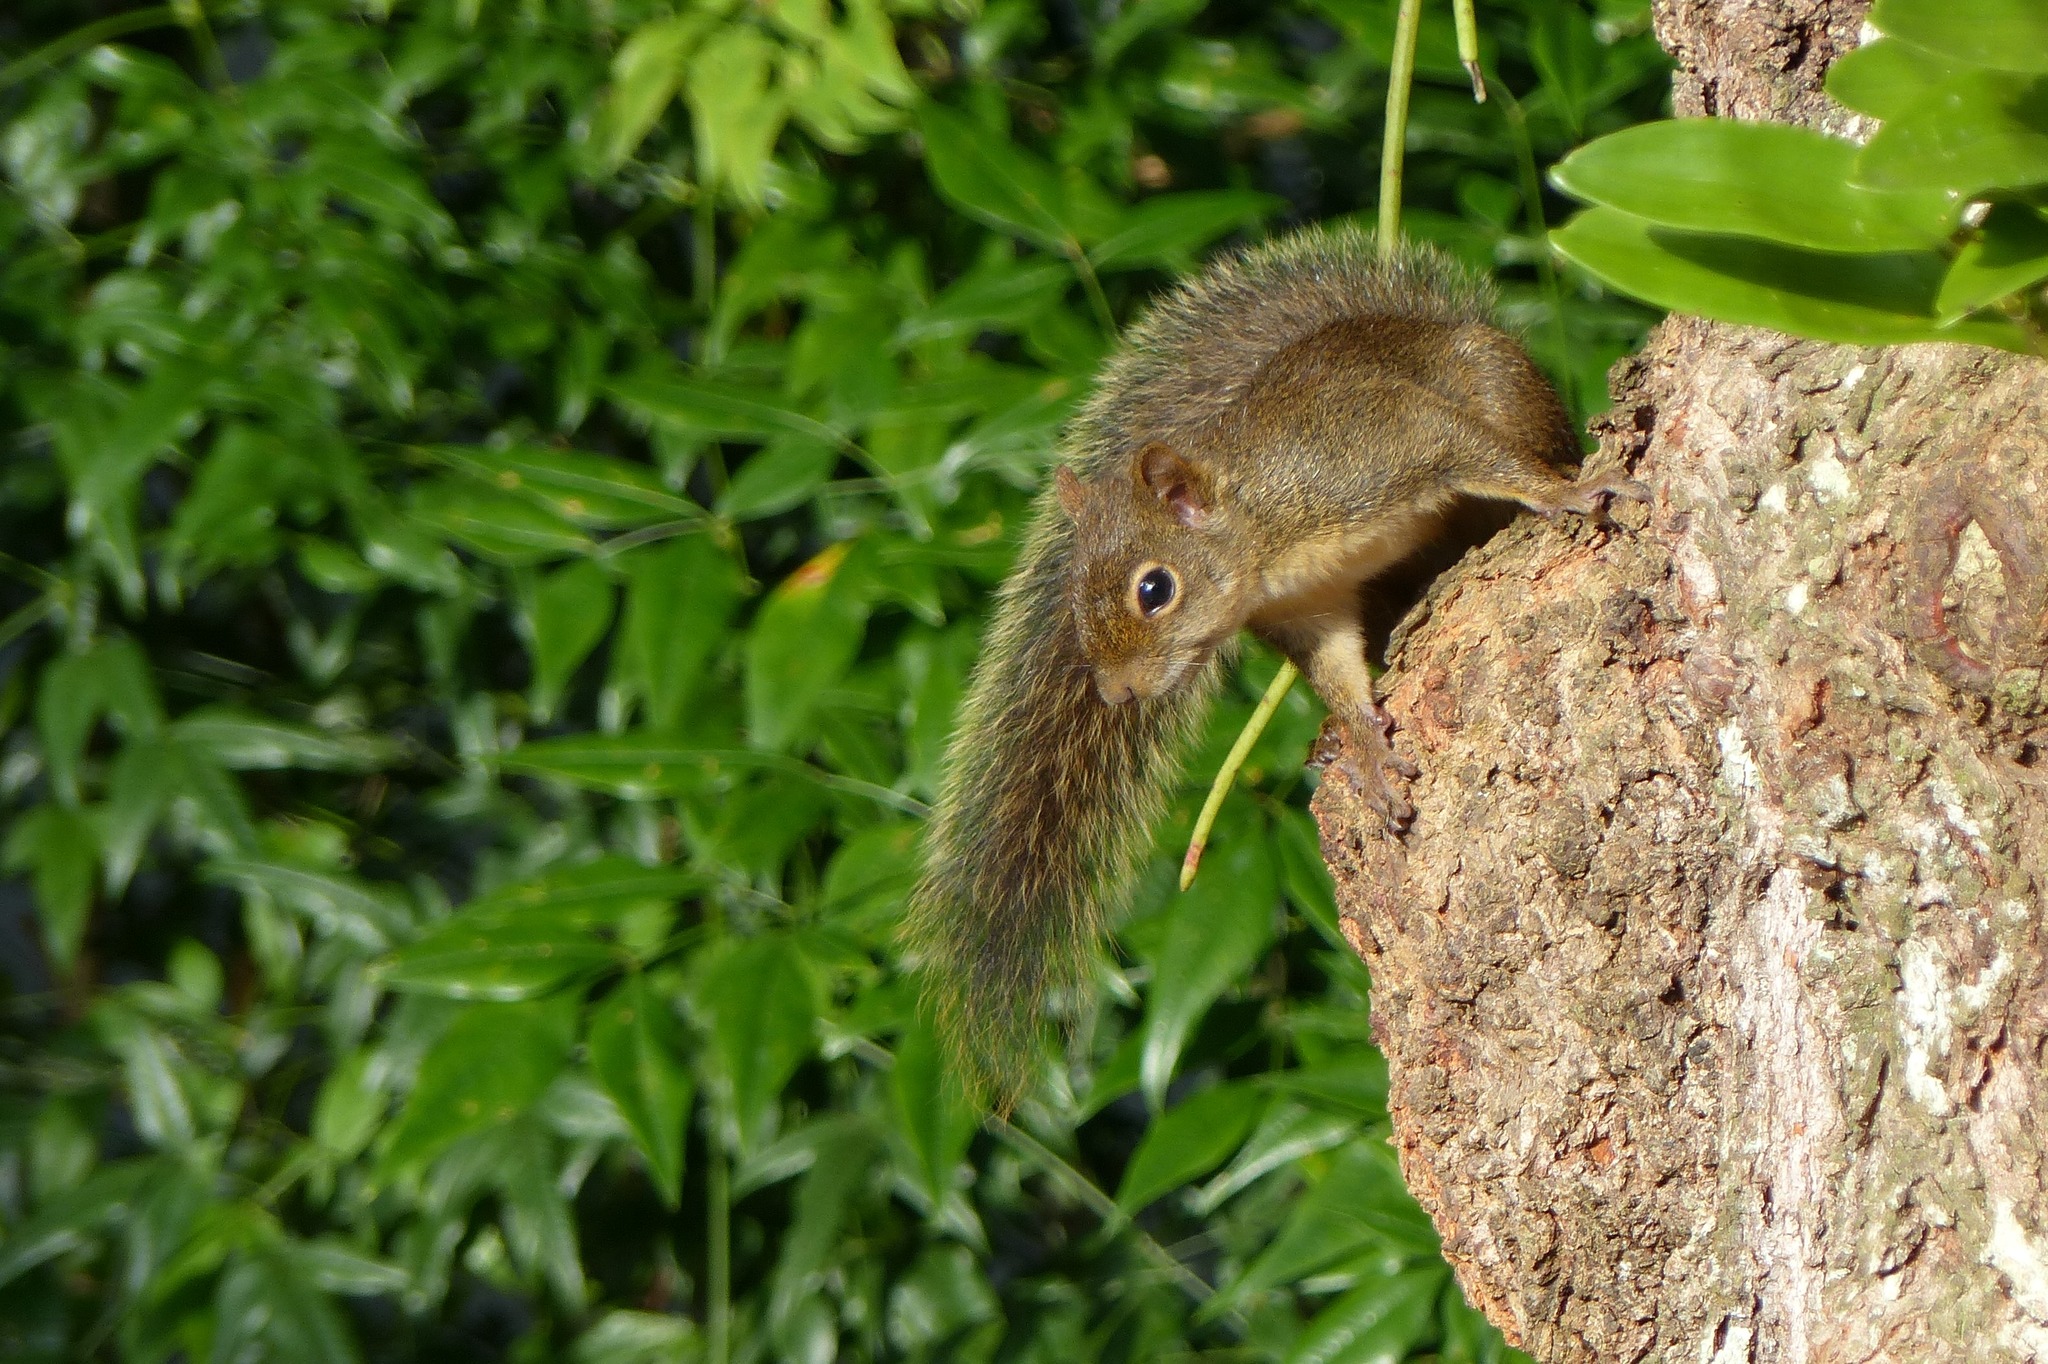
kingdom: Animalia
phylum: Chordata
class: Mammalia
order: Rodentia
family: Sciuridae
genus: Sciurus
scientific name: Sciurus aestuans
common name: Guianan squirrel
